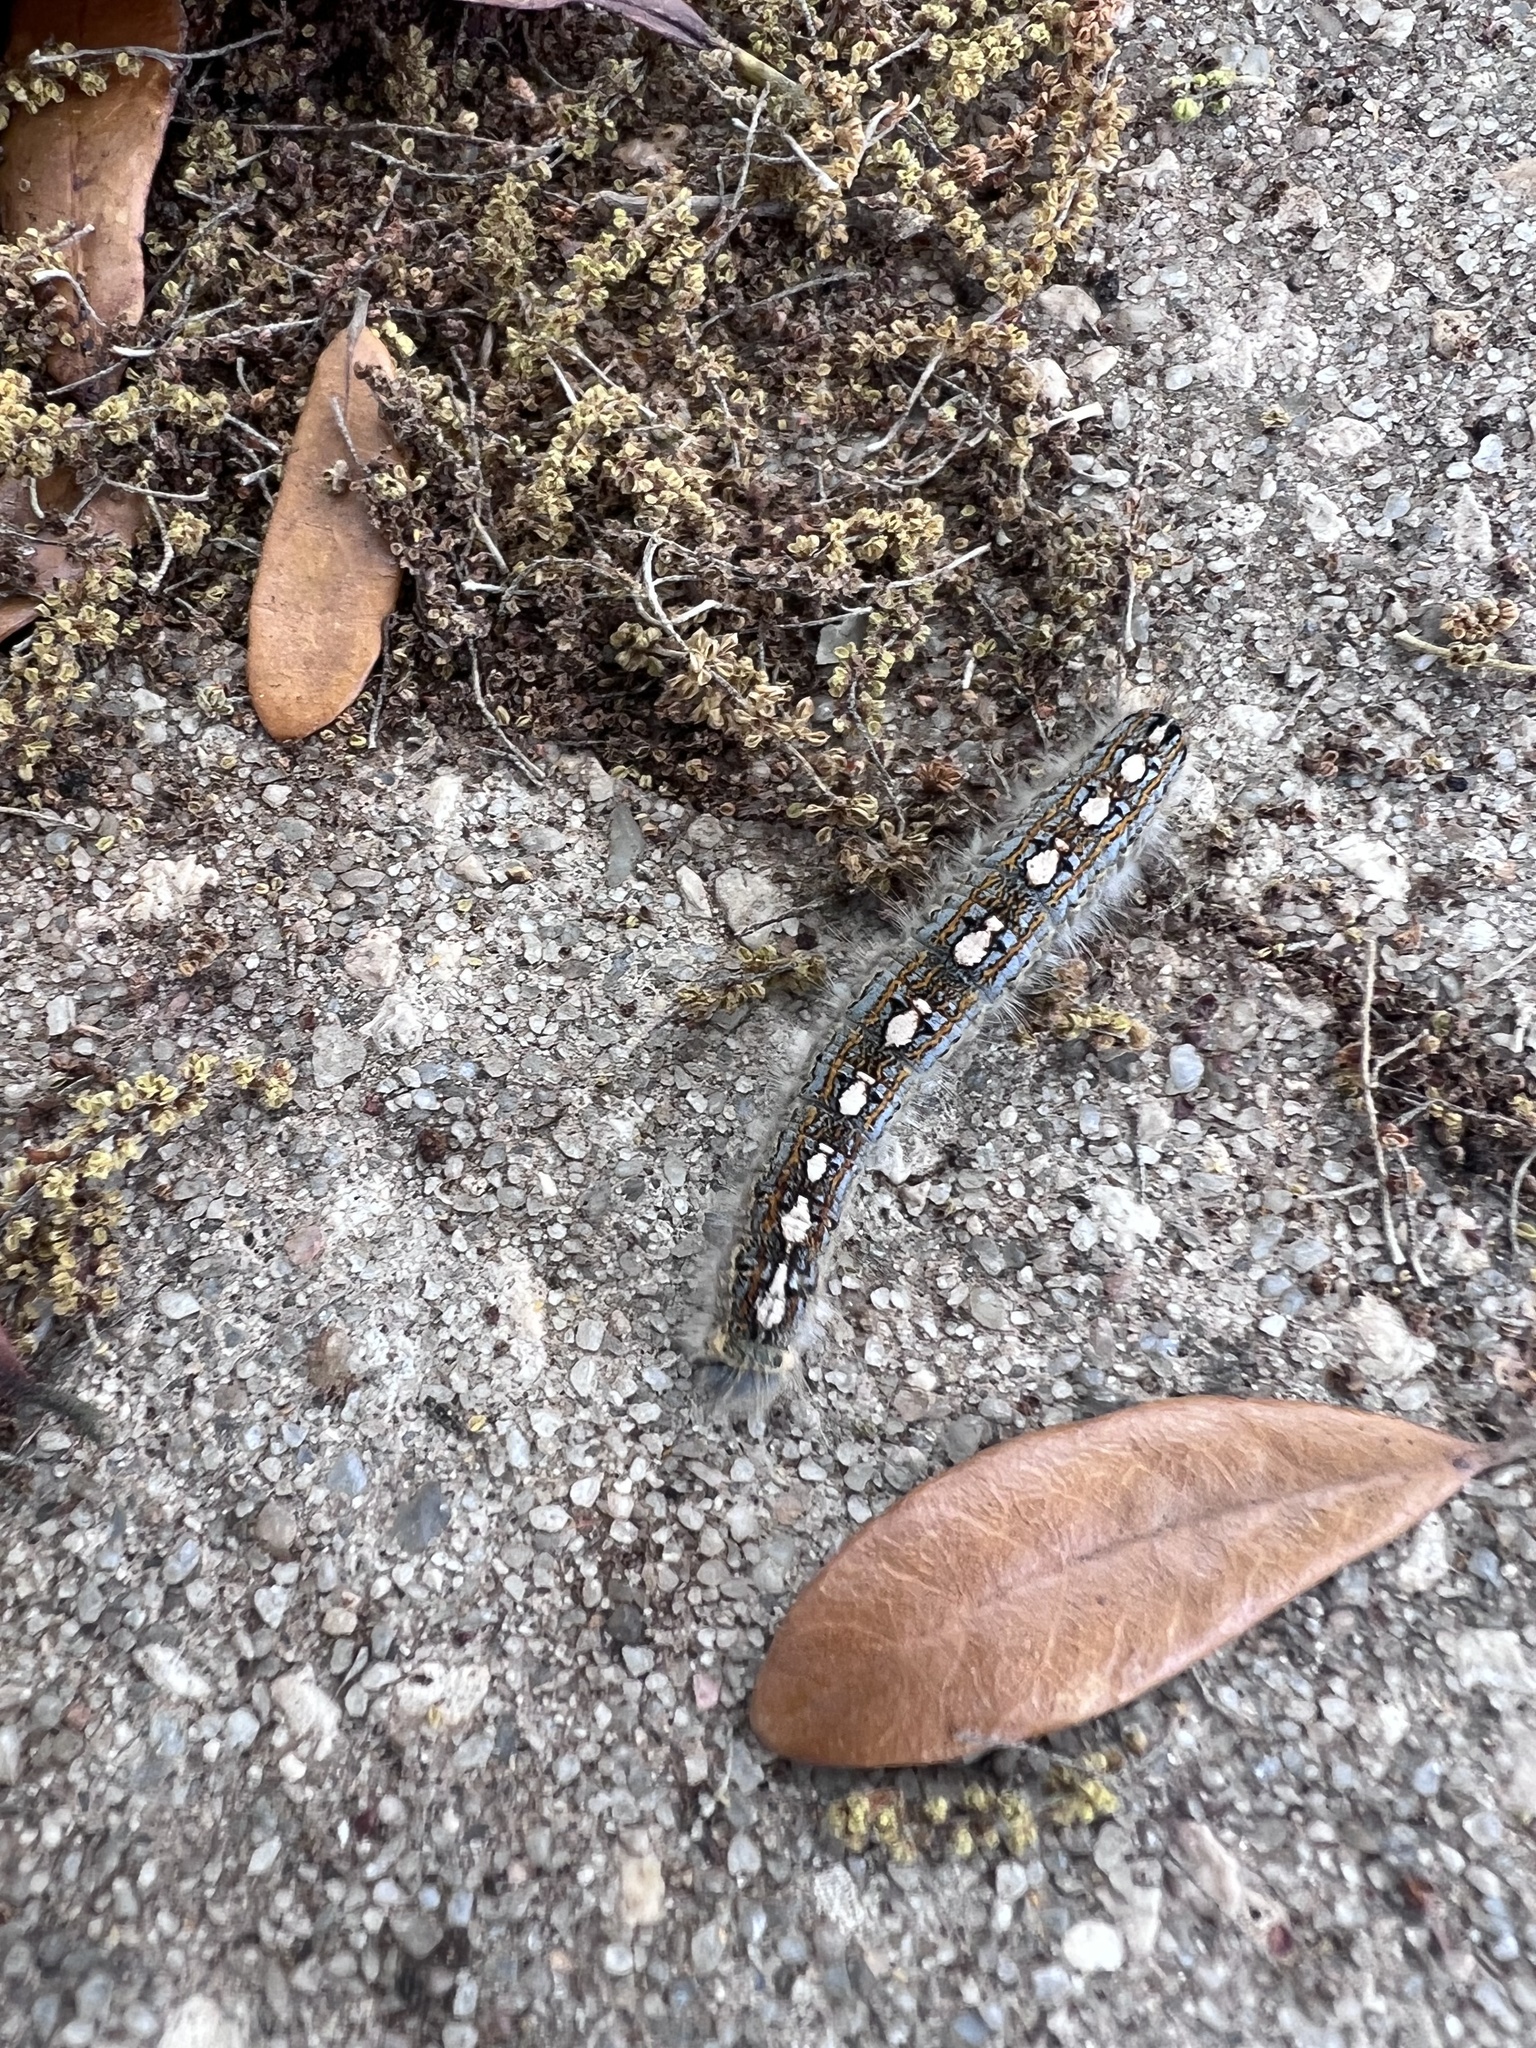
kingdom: Animalia
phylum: Arthropoda
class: Insecta
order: Lepidoptera
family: Lasiocampidae
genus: Malacosoma
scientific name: Malacosoma disstria
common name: Forest tent caterpillar
